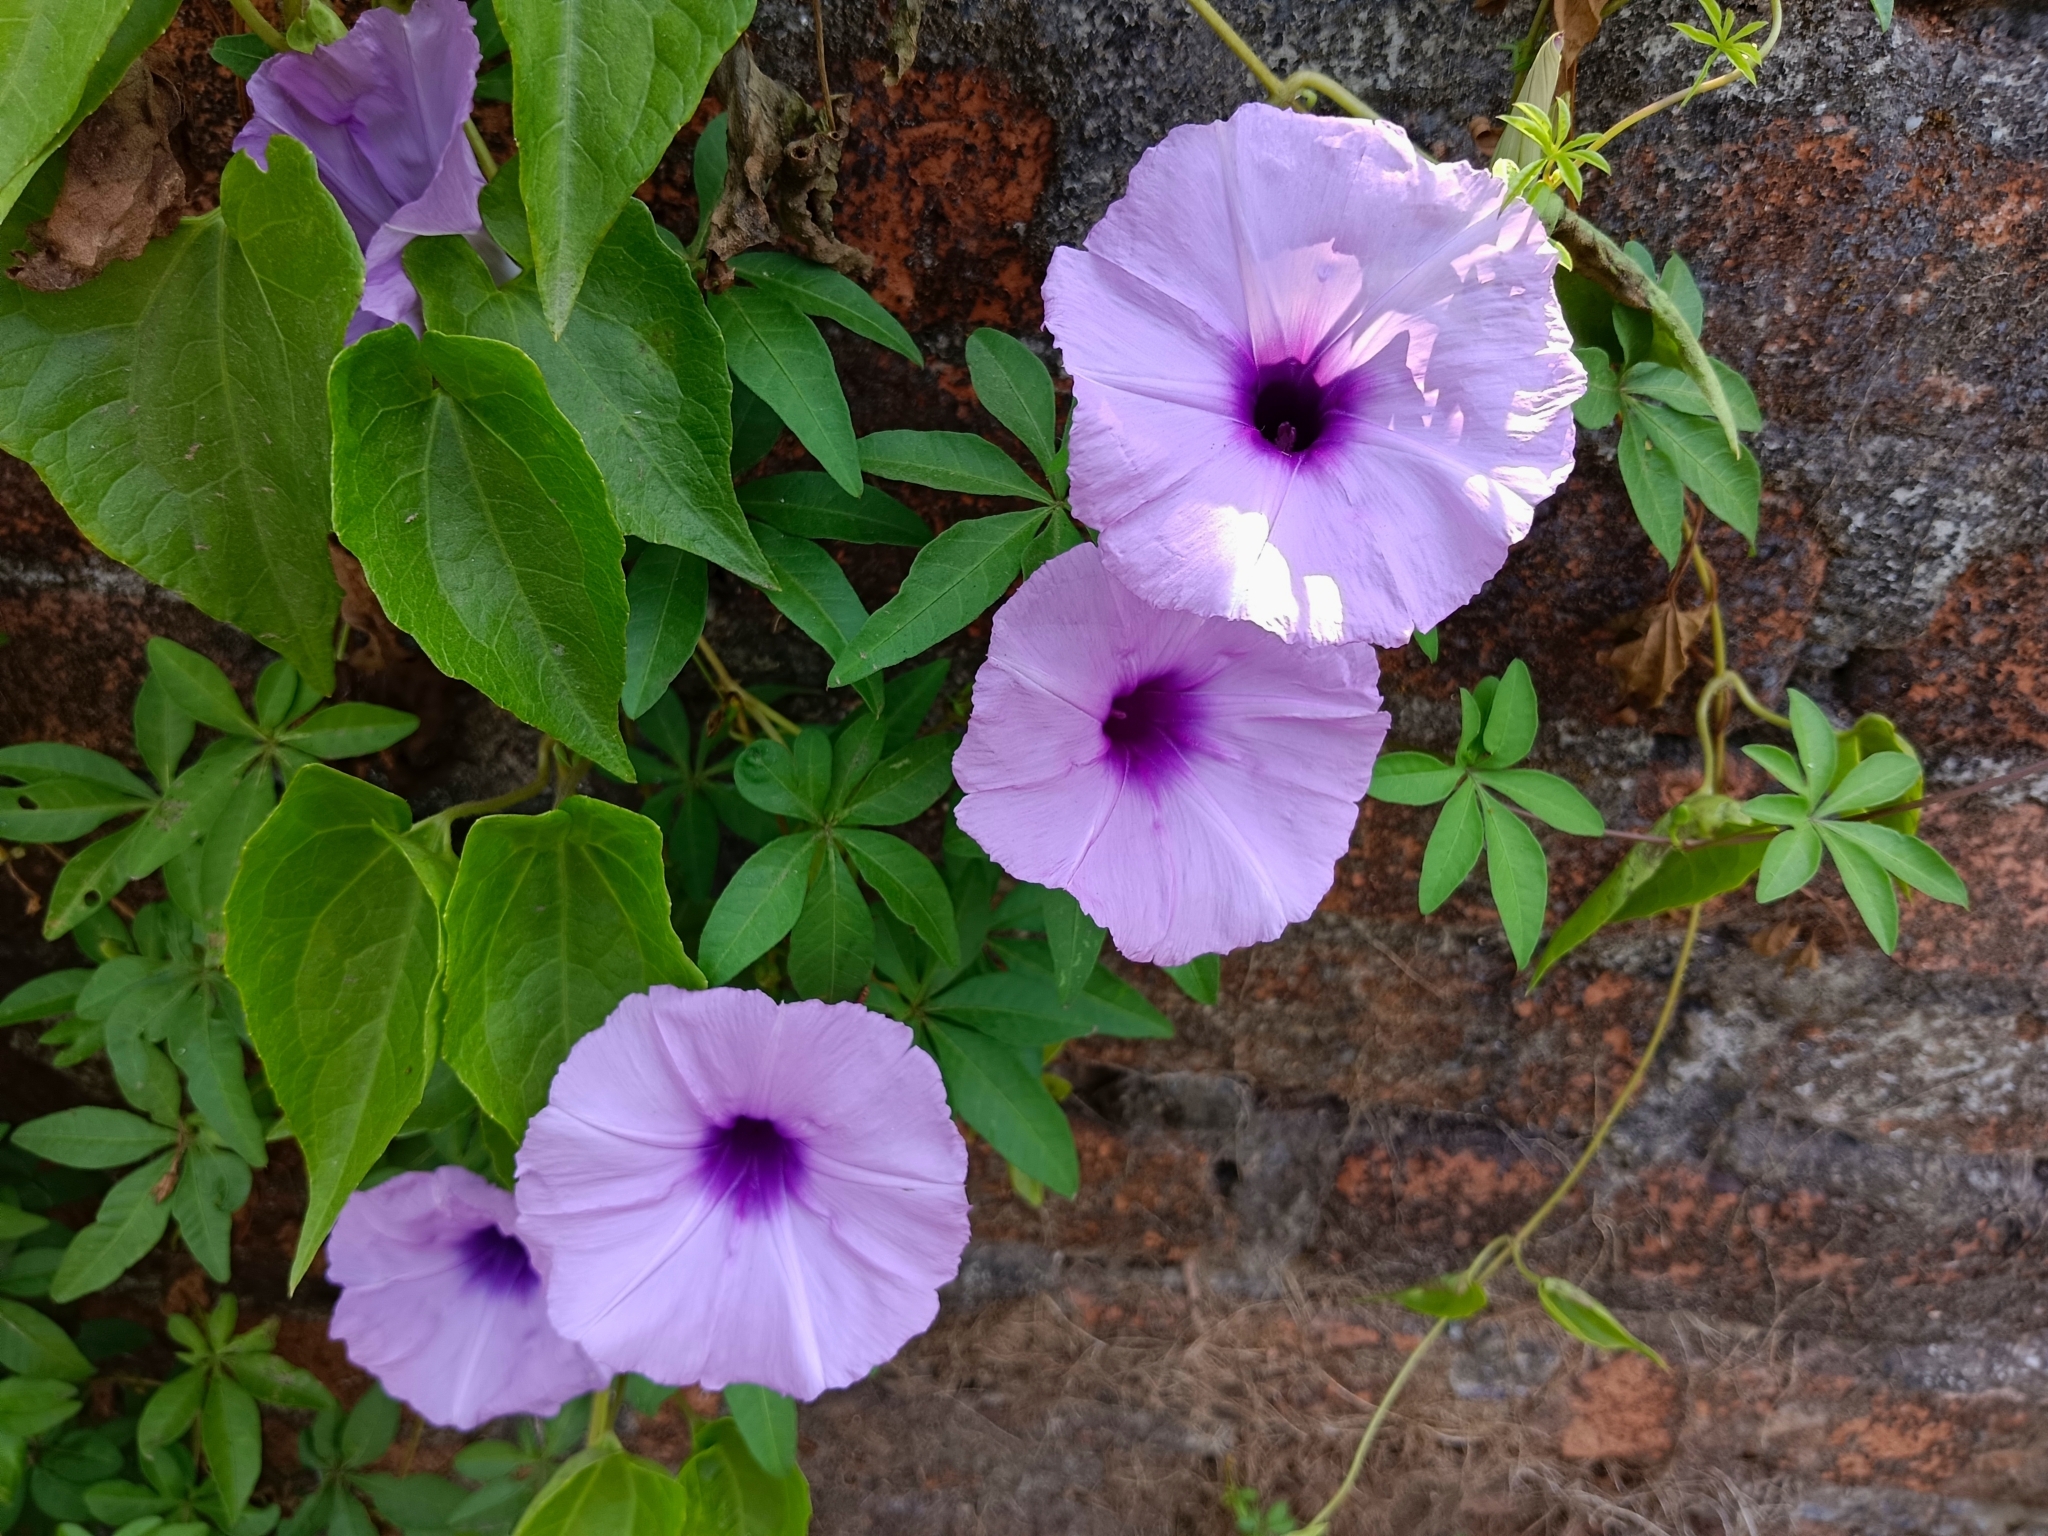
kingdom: Plantae
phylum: Tracheophyta
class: Magnoliopsida
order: Solanales
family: Convolvulaceae
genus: Ipomoea
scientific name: Ipomoea cairica
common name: Mile a minute vine
